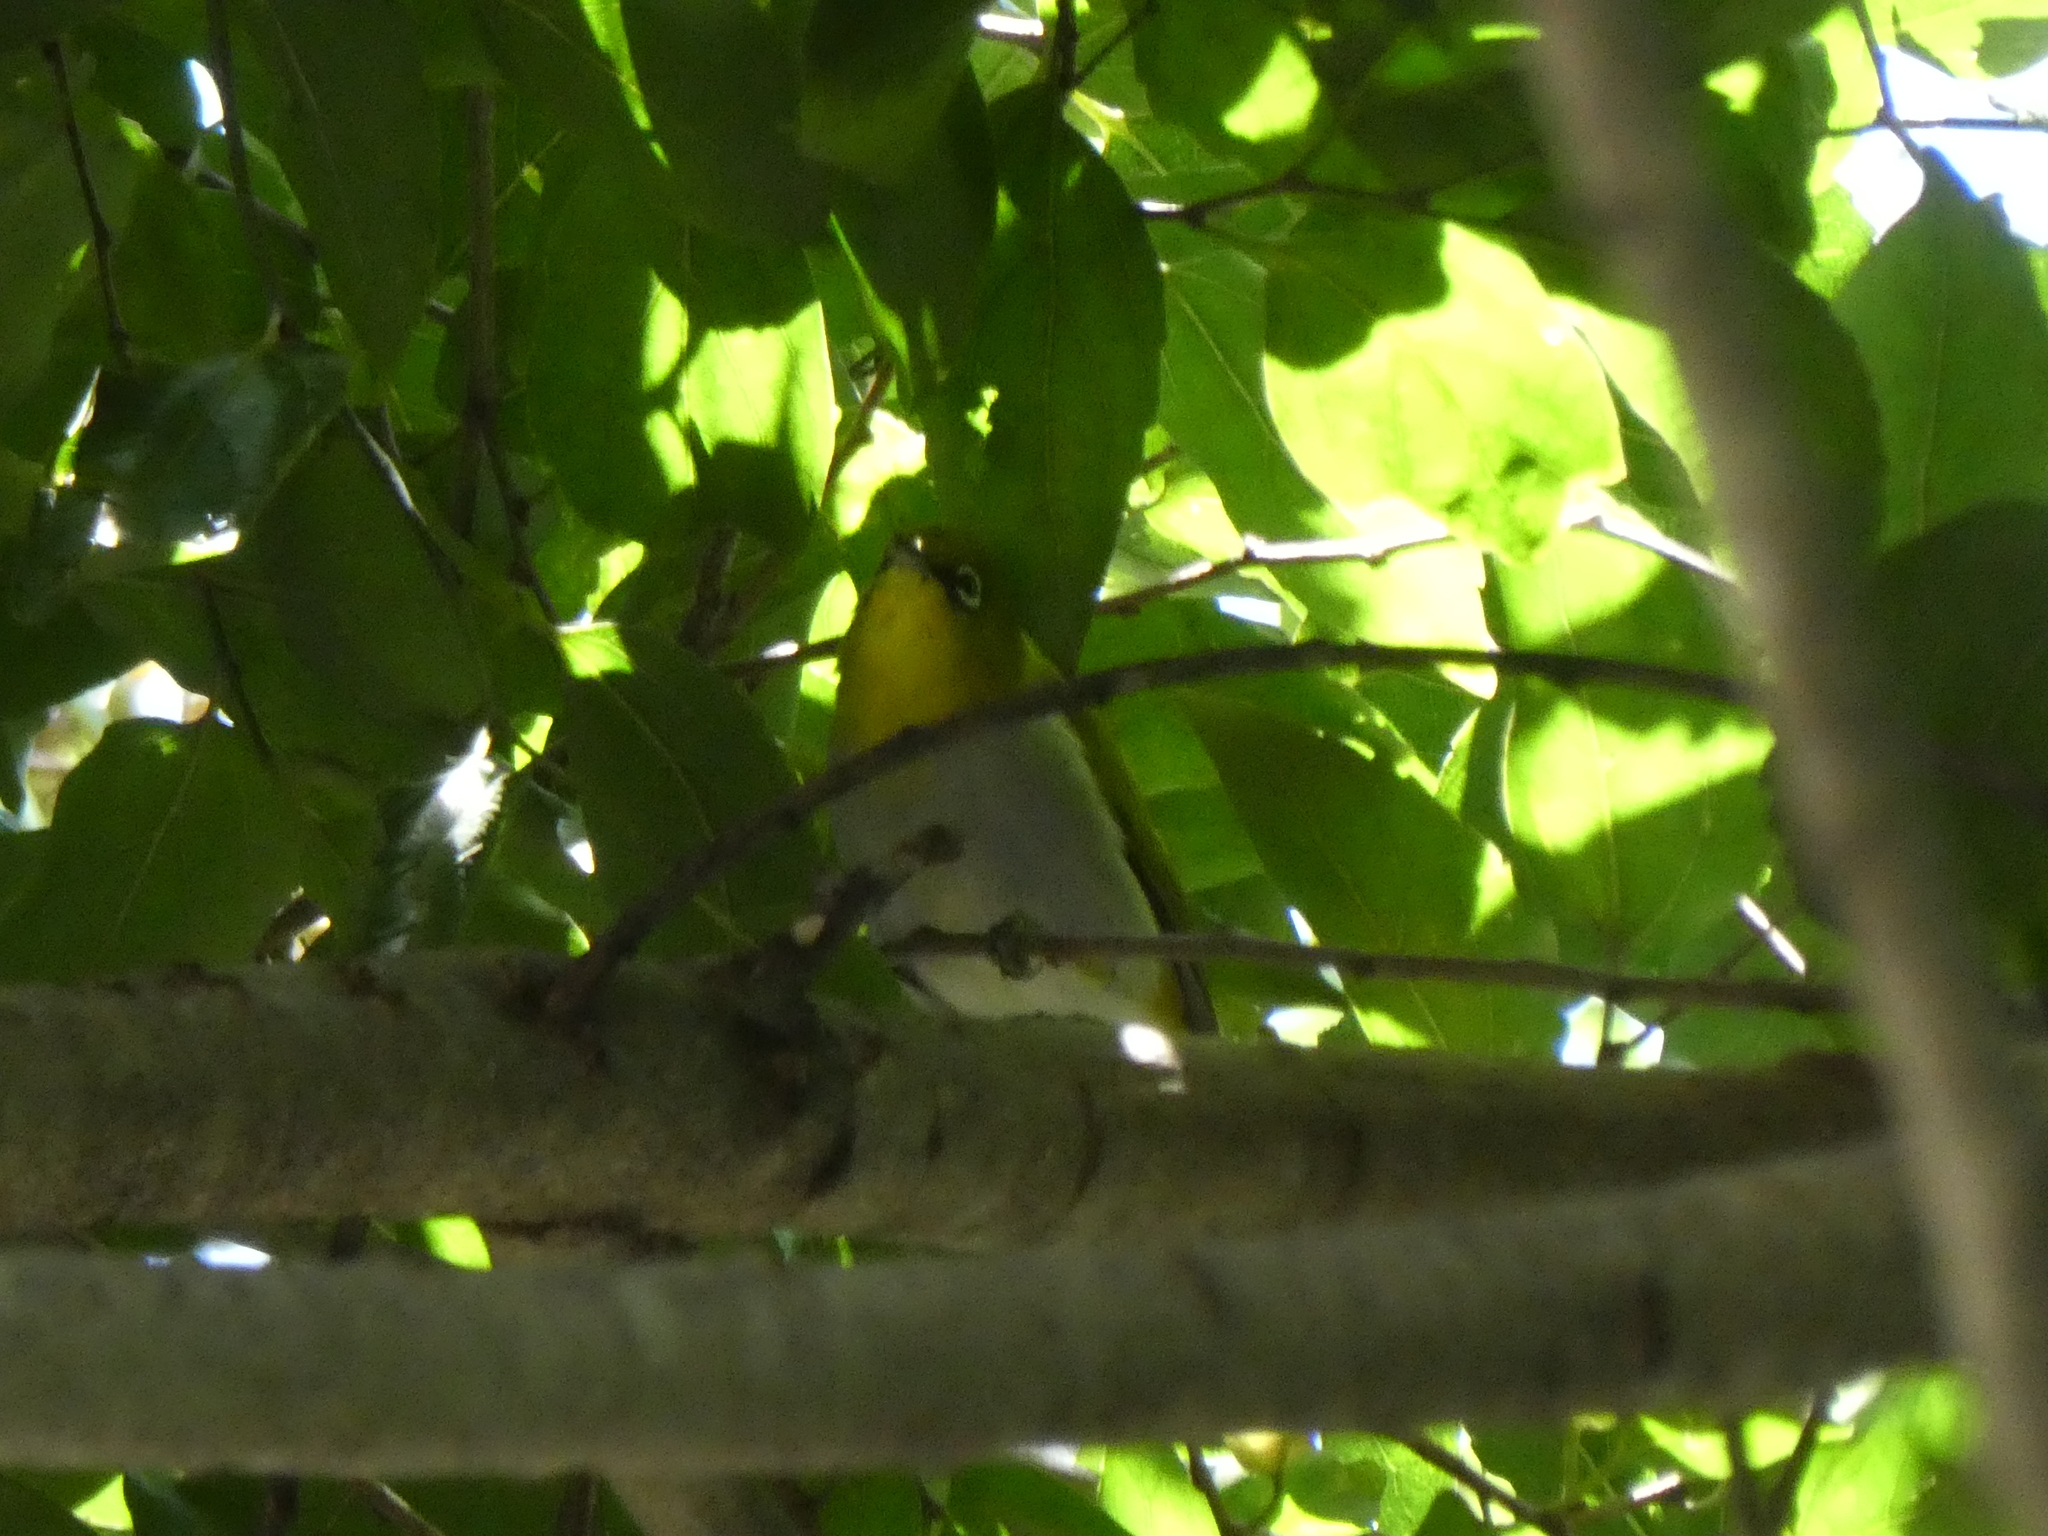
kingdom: Animalia
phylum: Chordata
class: Aves
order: Passeriformes
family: Zosteropidae
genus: Zosterops
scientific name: Zosterops simplex
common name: Swinhoe's white-eye
